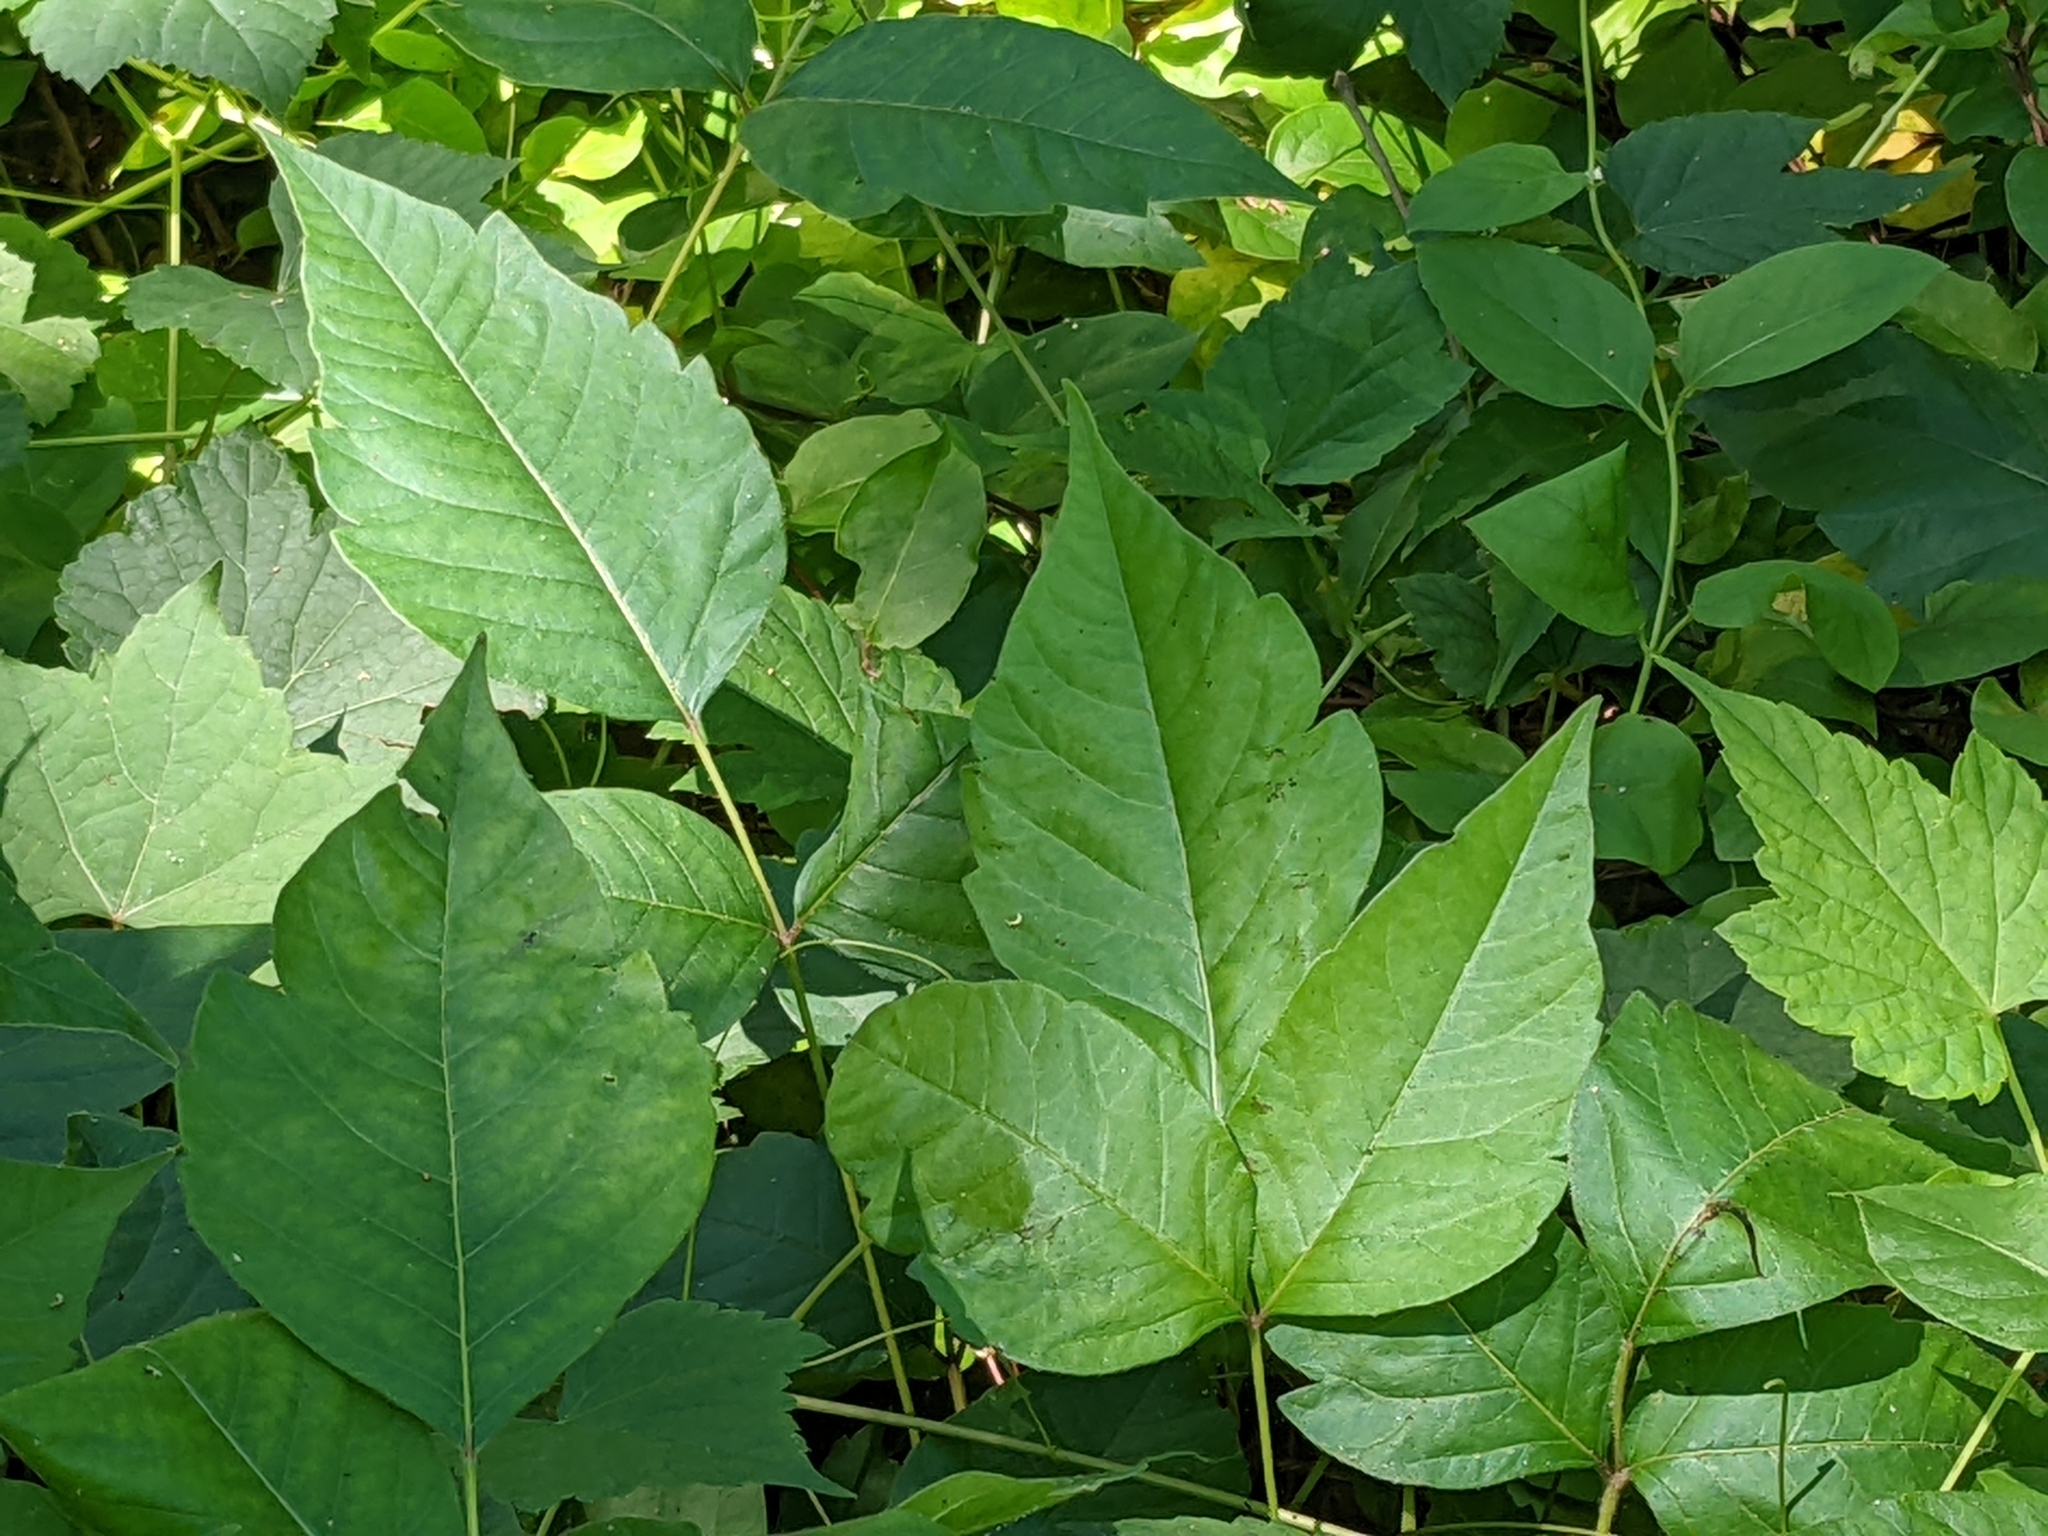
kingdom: Plantae
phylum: Tracheophyta
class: Magnoliopsida
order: Sapindales
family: Anacardiaceae
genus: Toxicodendron
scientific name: Toxicodendron radicans
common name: Poison ivy
